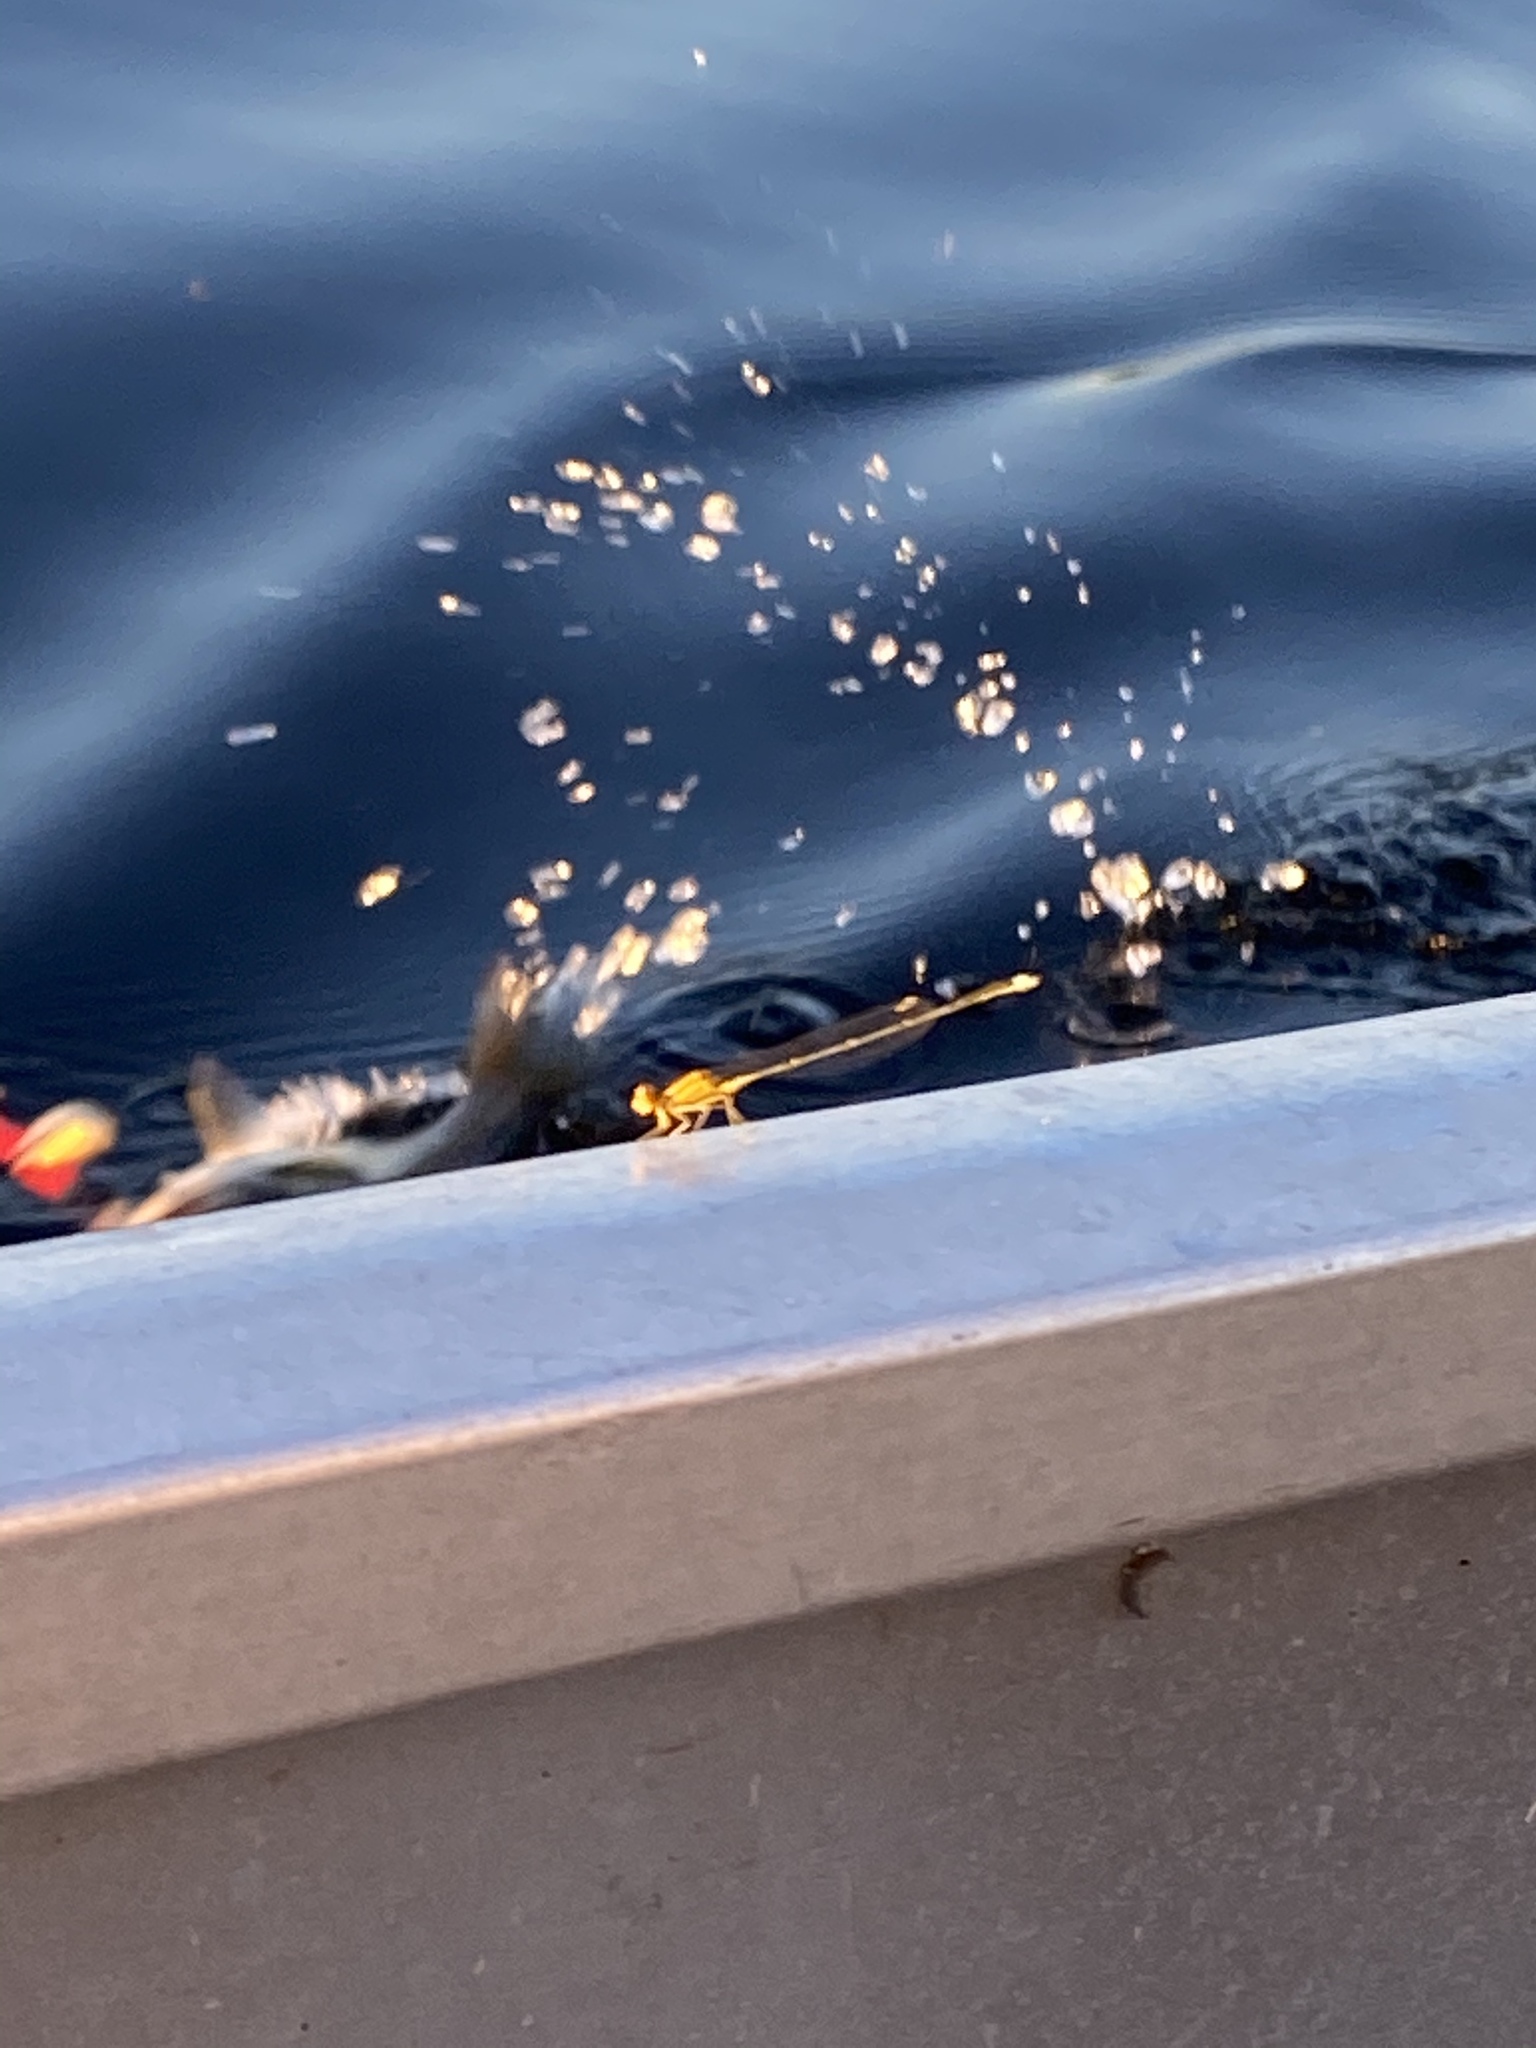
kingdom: Animalia
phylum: Arthropoda
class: Insecta
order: Odonata
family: Coenagrionidae
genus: Enallagma
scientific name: Enallagma signatum
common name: Orange bluet
